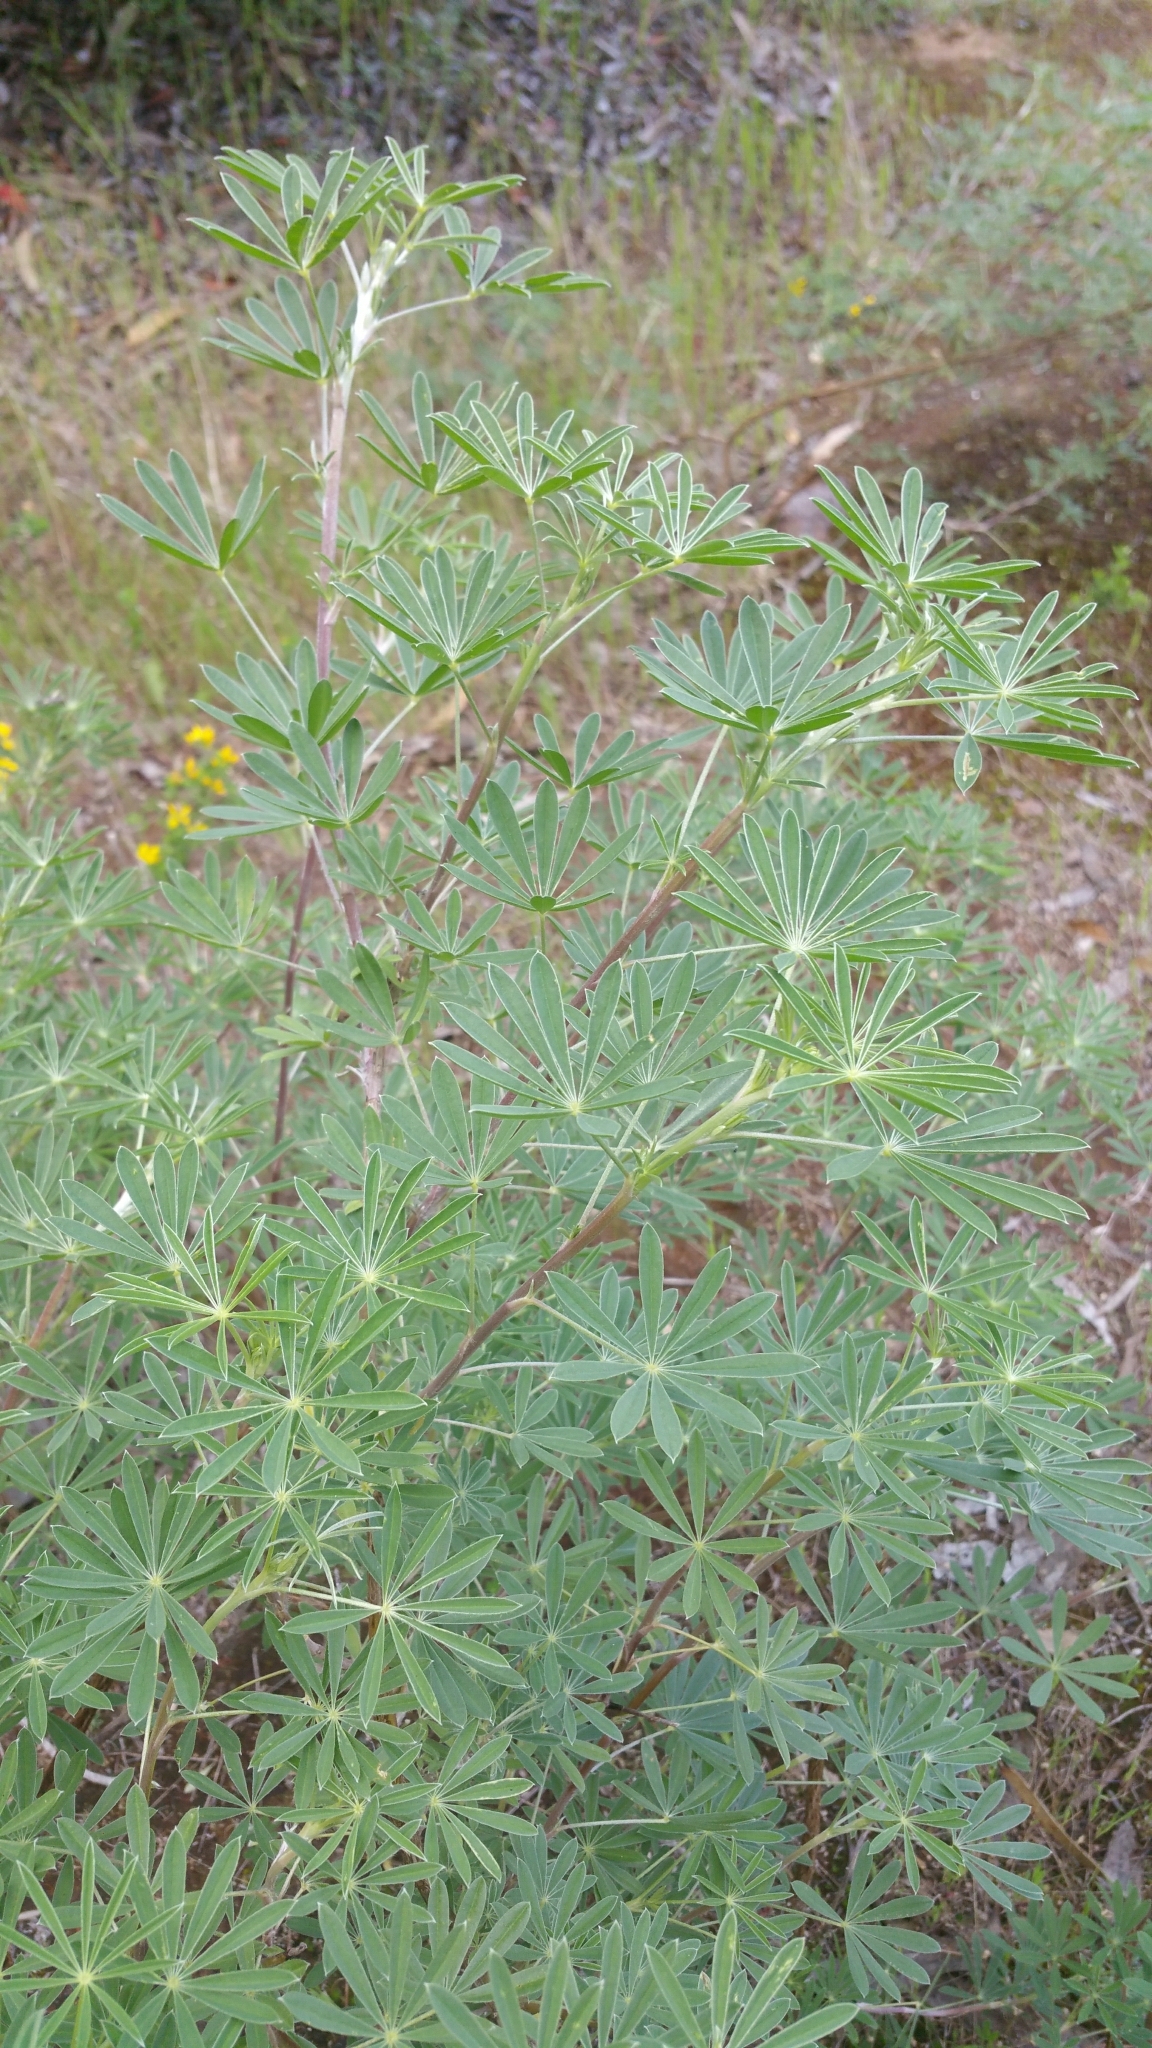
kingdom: Plantae
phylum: Tracheophyta
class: Magnoliopsida
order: Fabales
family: Fabaceae
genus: Lupinus
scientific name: Lupinus arboreus
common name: Yellow bush lupine
